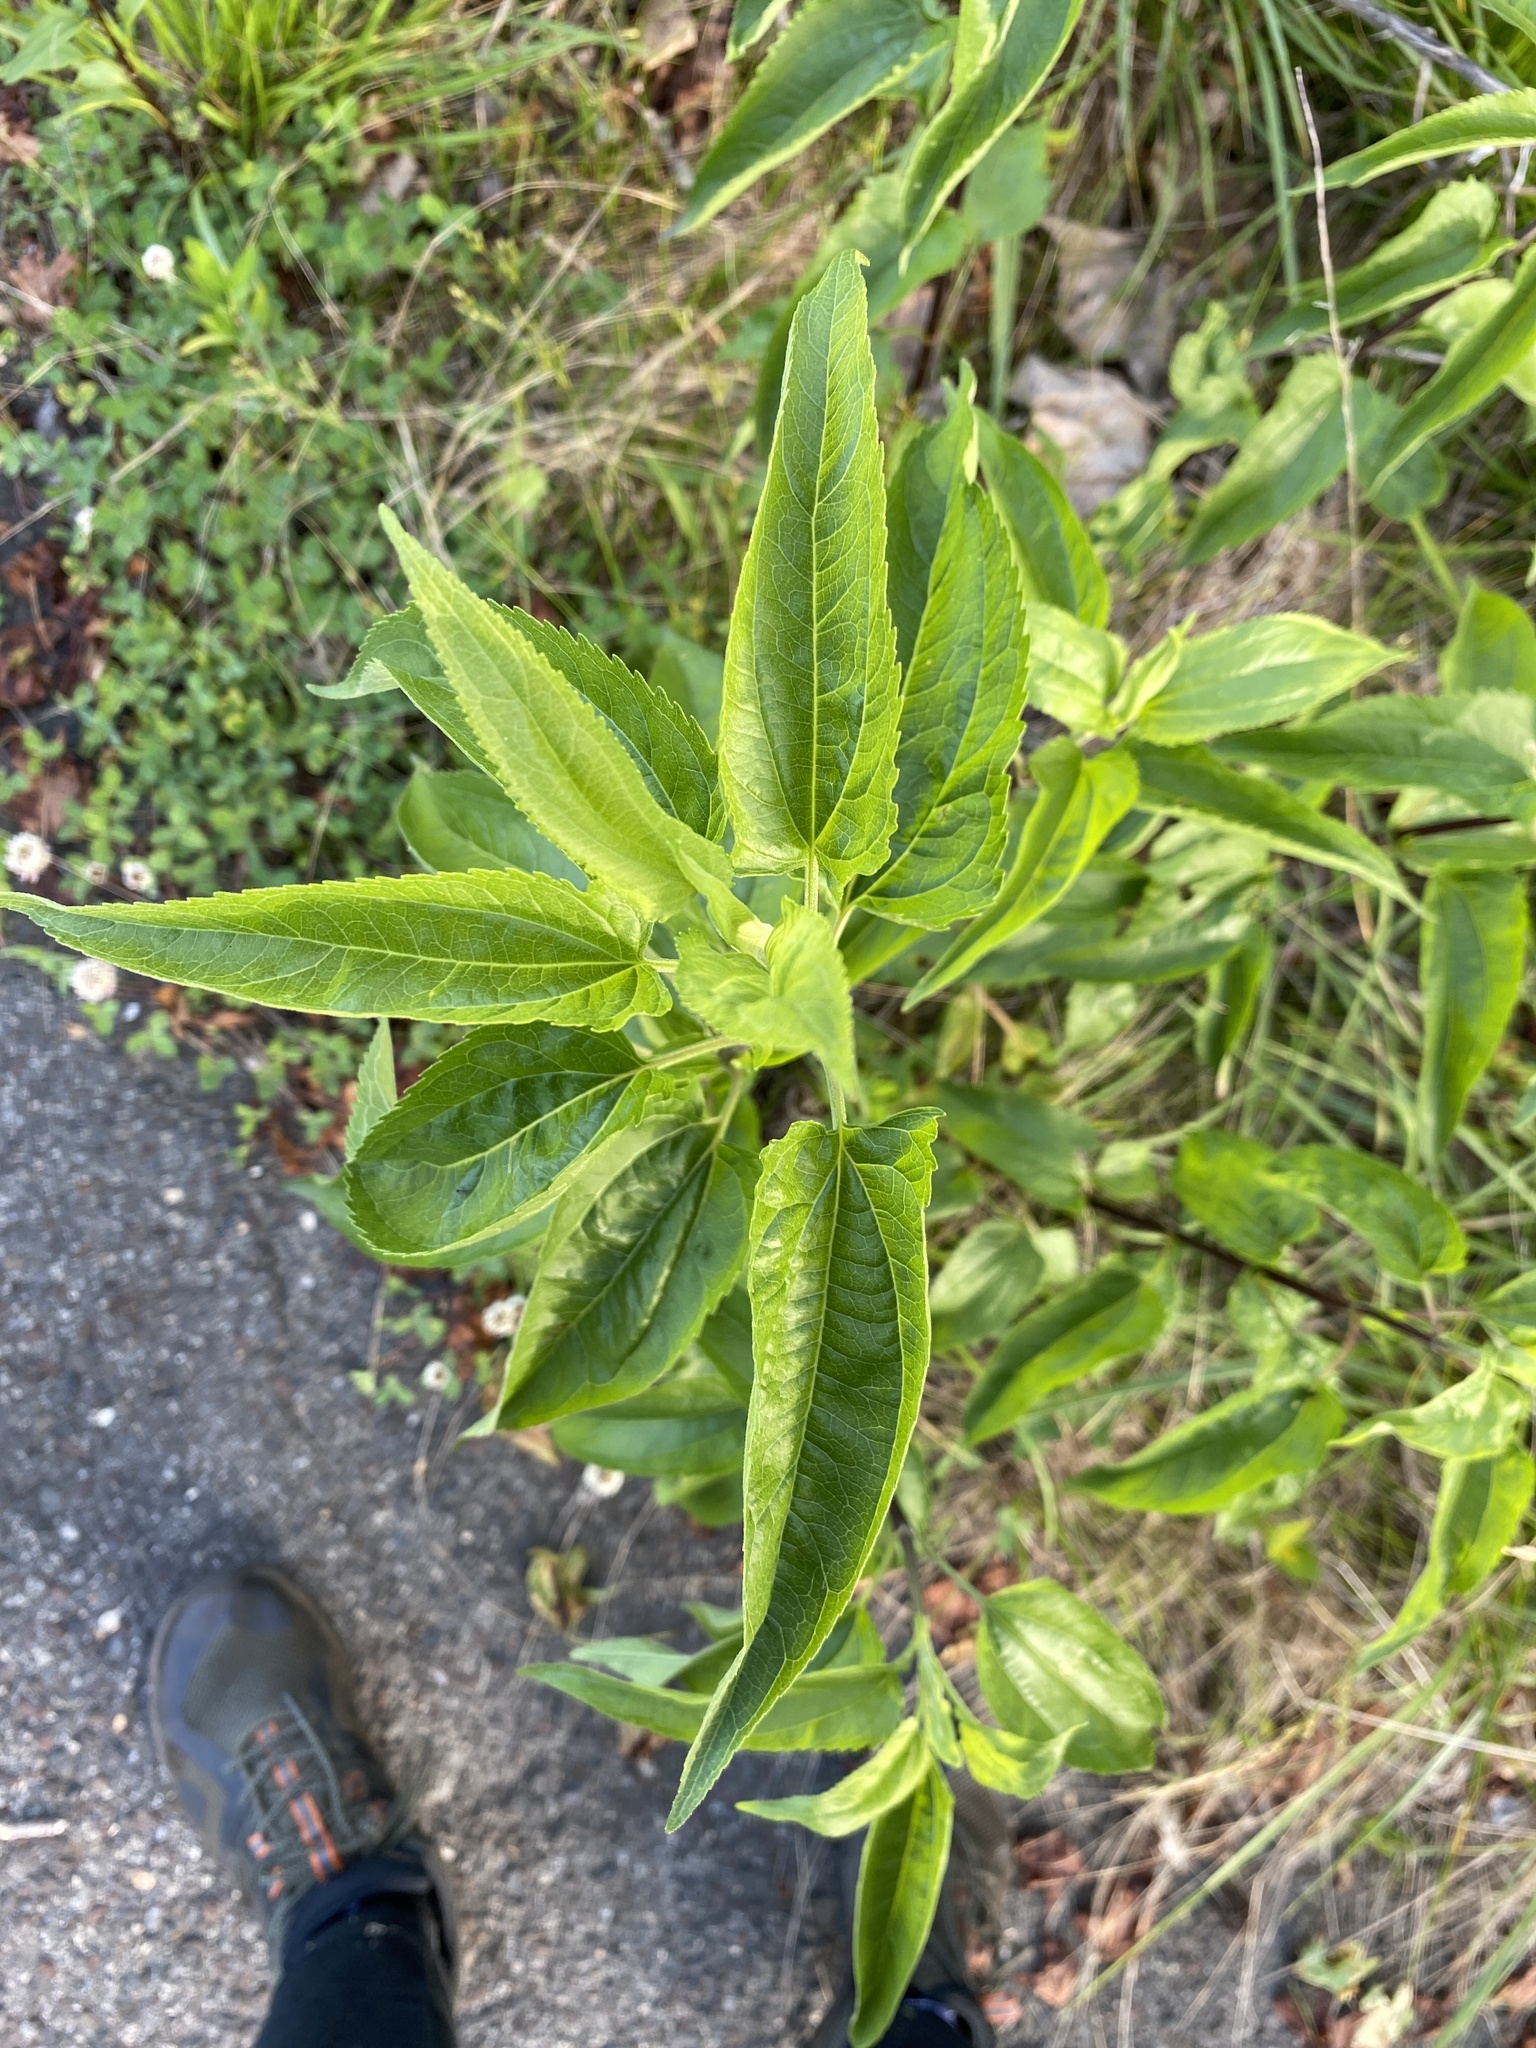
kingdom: Plantae
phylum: Tracheophyta
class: Magnoliopsida
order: Asterales
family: Asteraceae
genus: Eupatorium
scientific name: Eupatorium serotinum
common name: Late boneset
